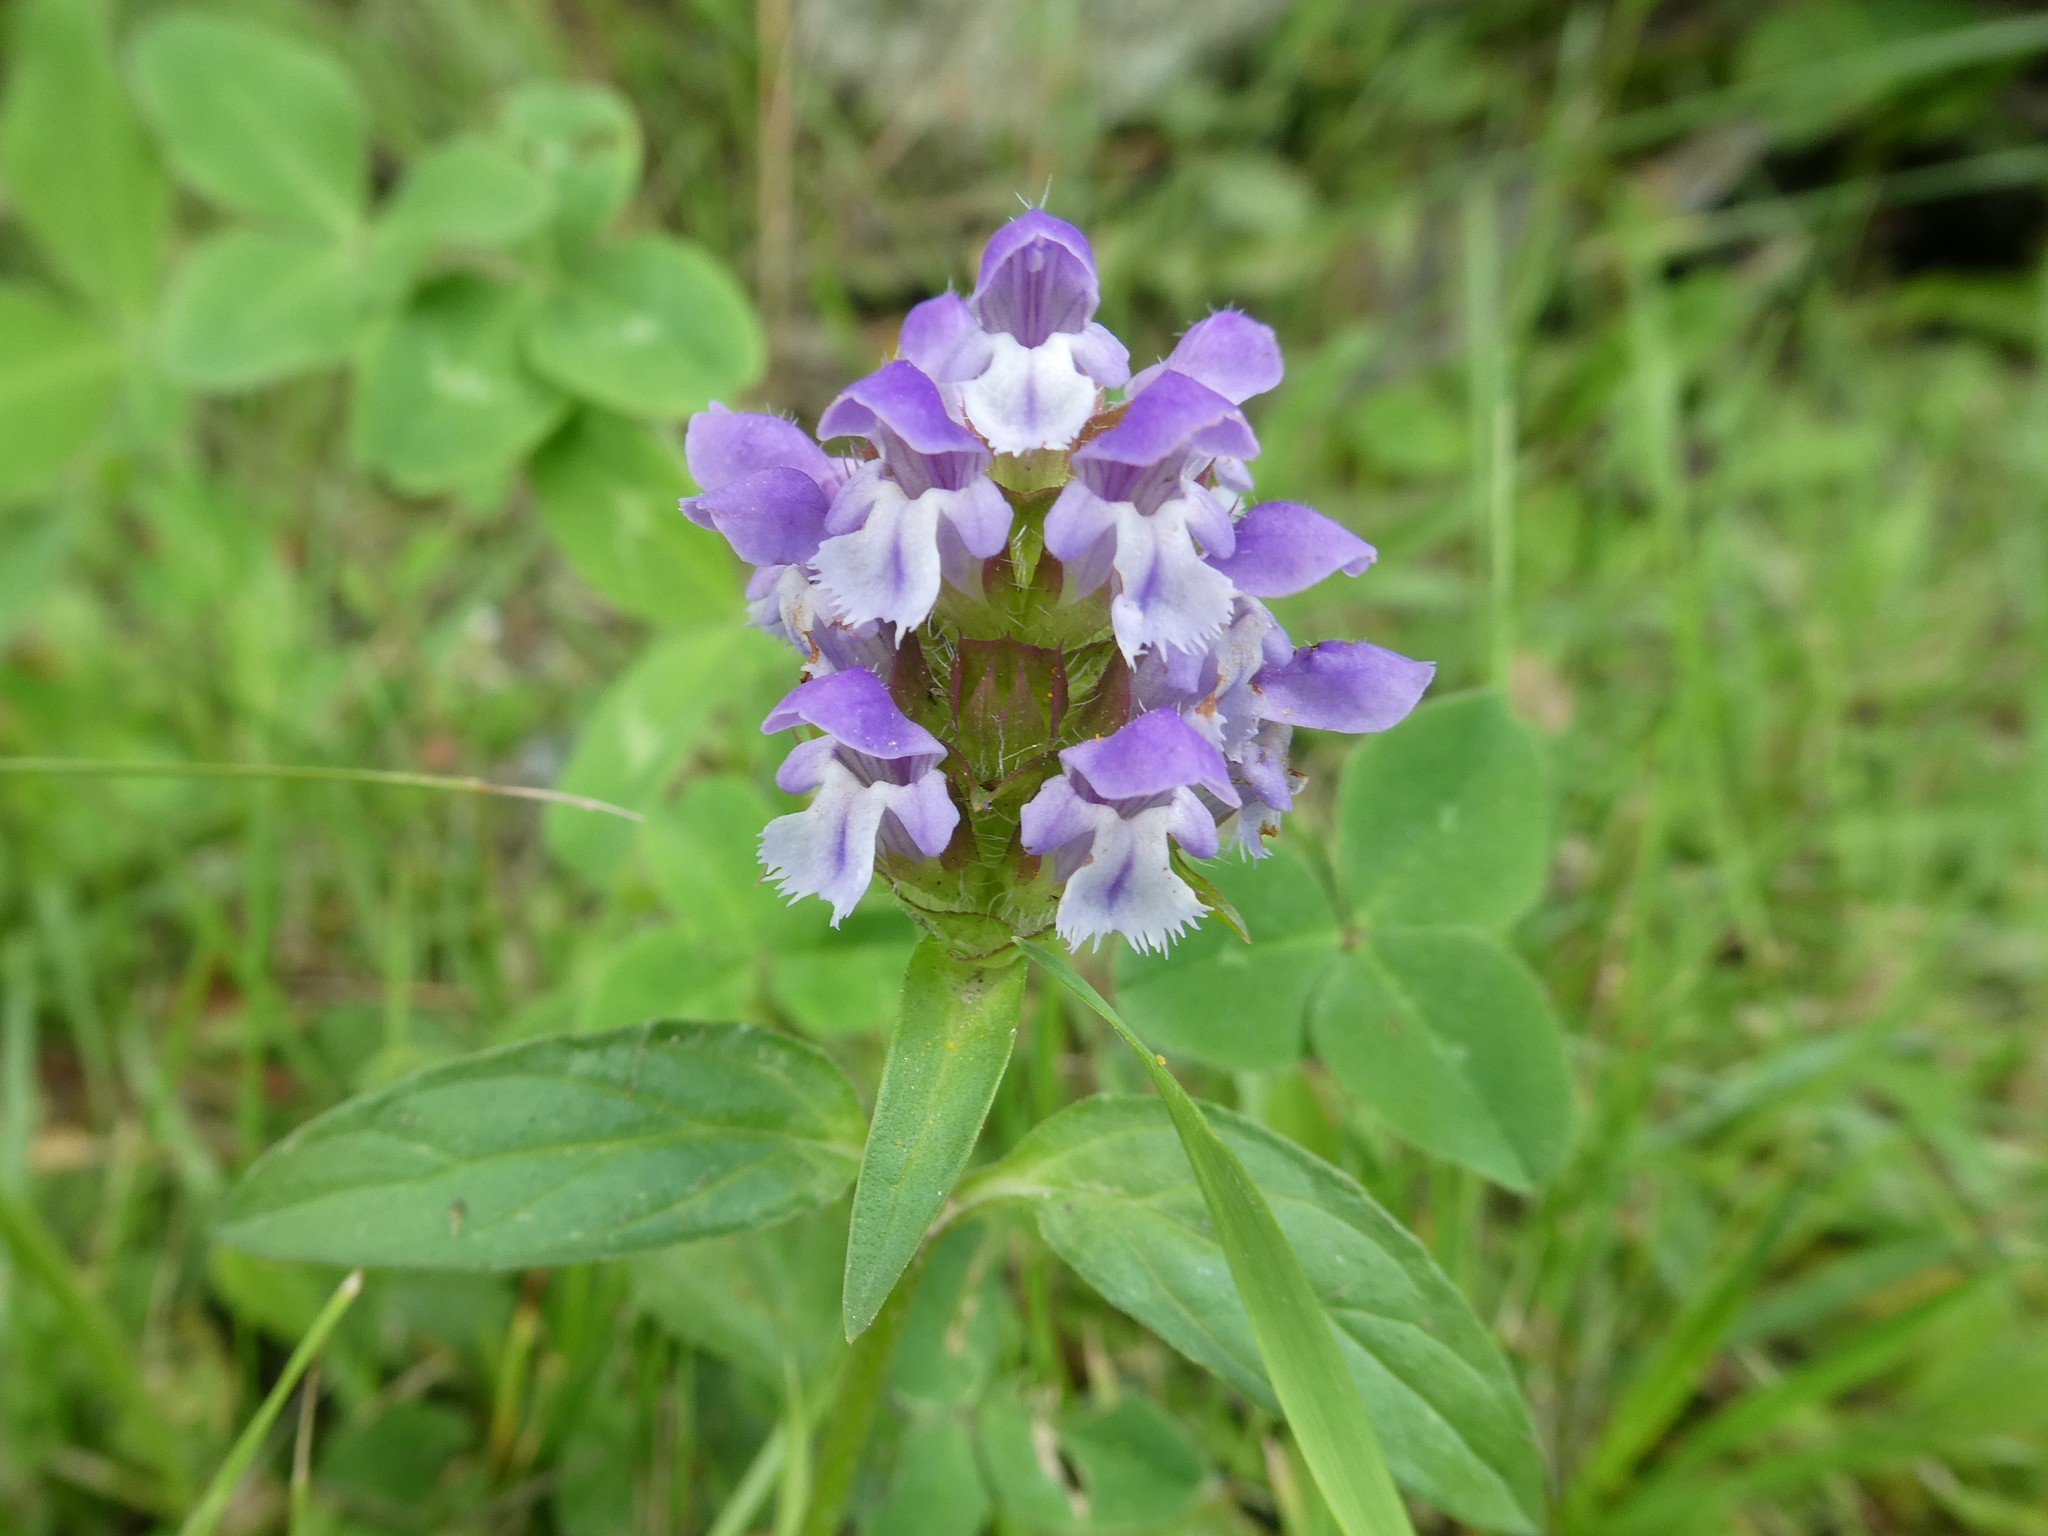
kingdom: Plantae
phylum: Tracheophyta
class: Magnoliopsida
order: Lamiales
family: Lamiaceae
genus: Prunella
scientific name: Prunella vulgaris
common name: Heal-all
